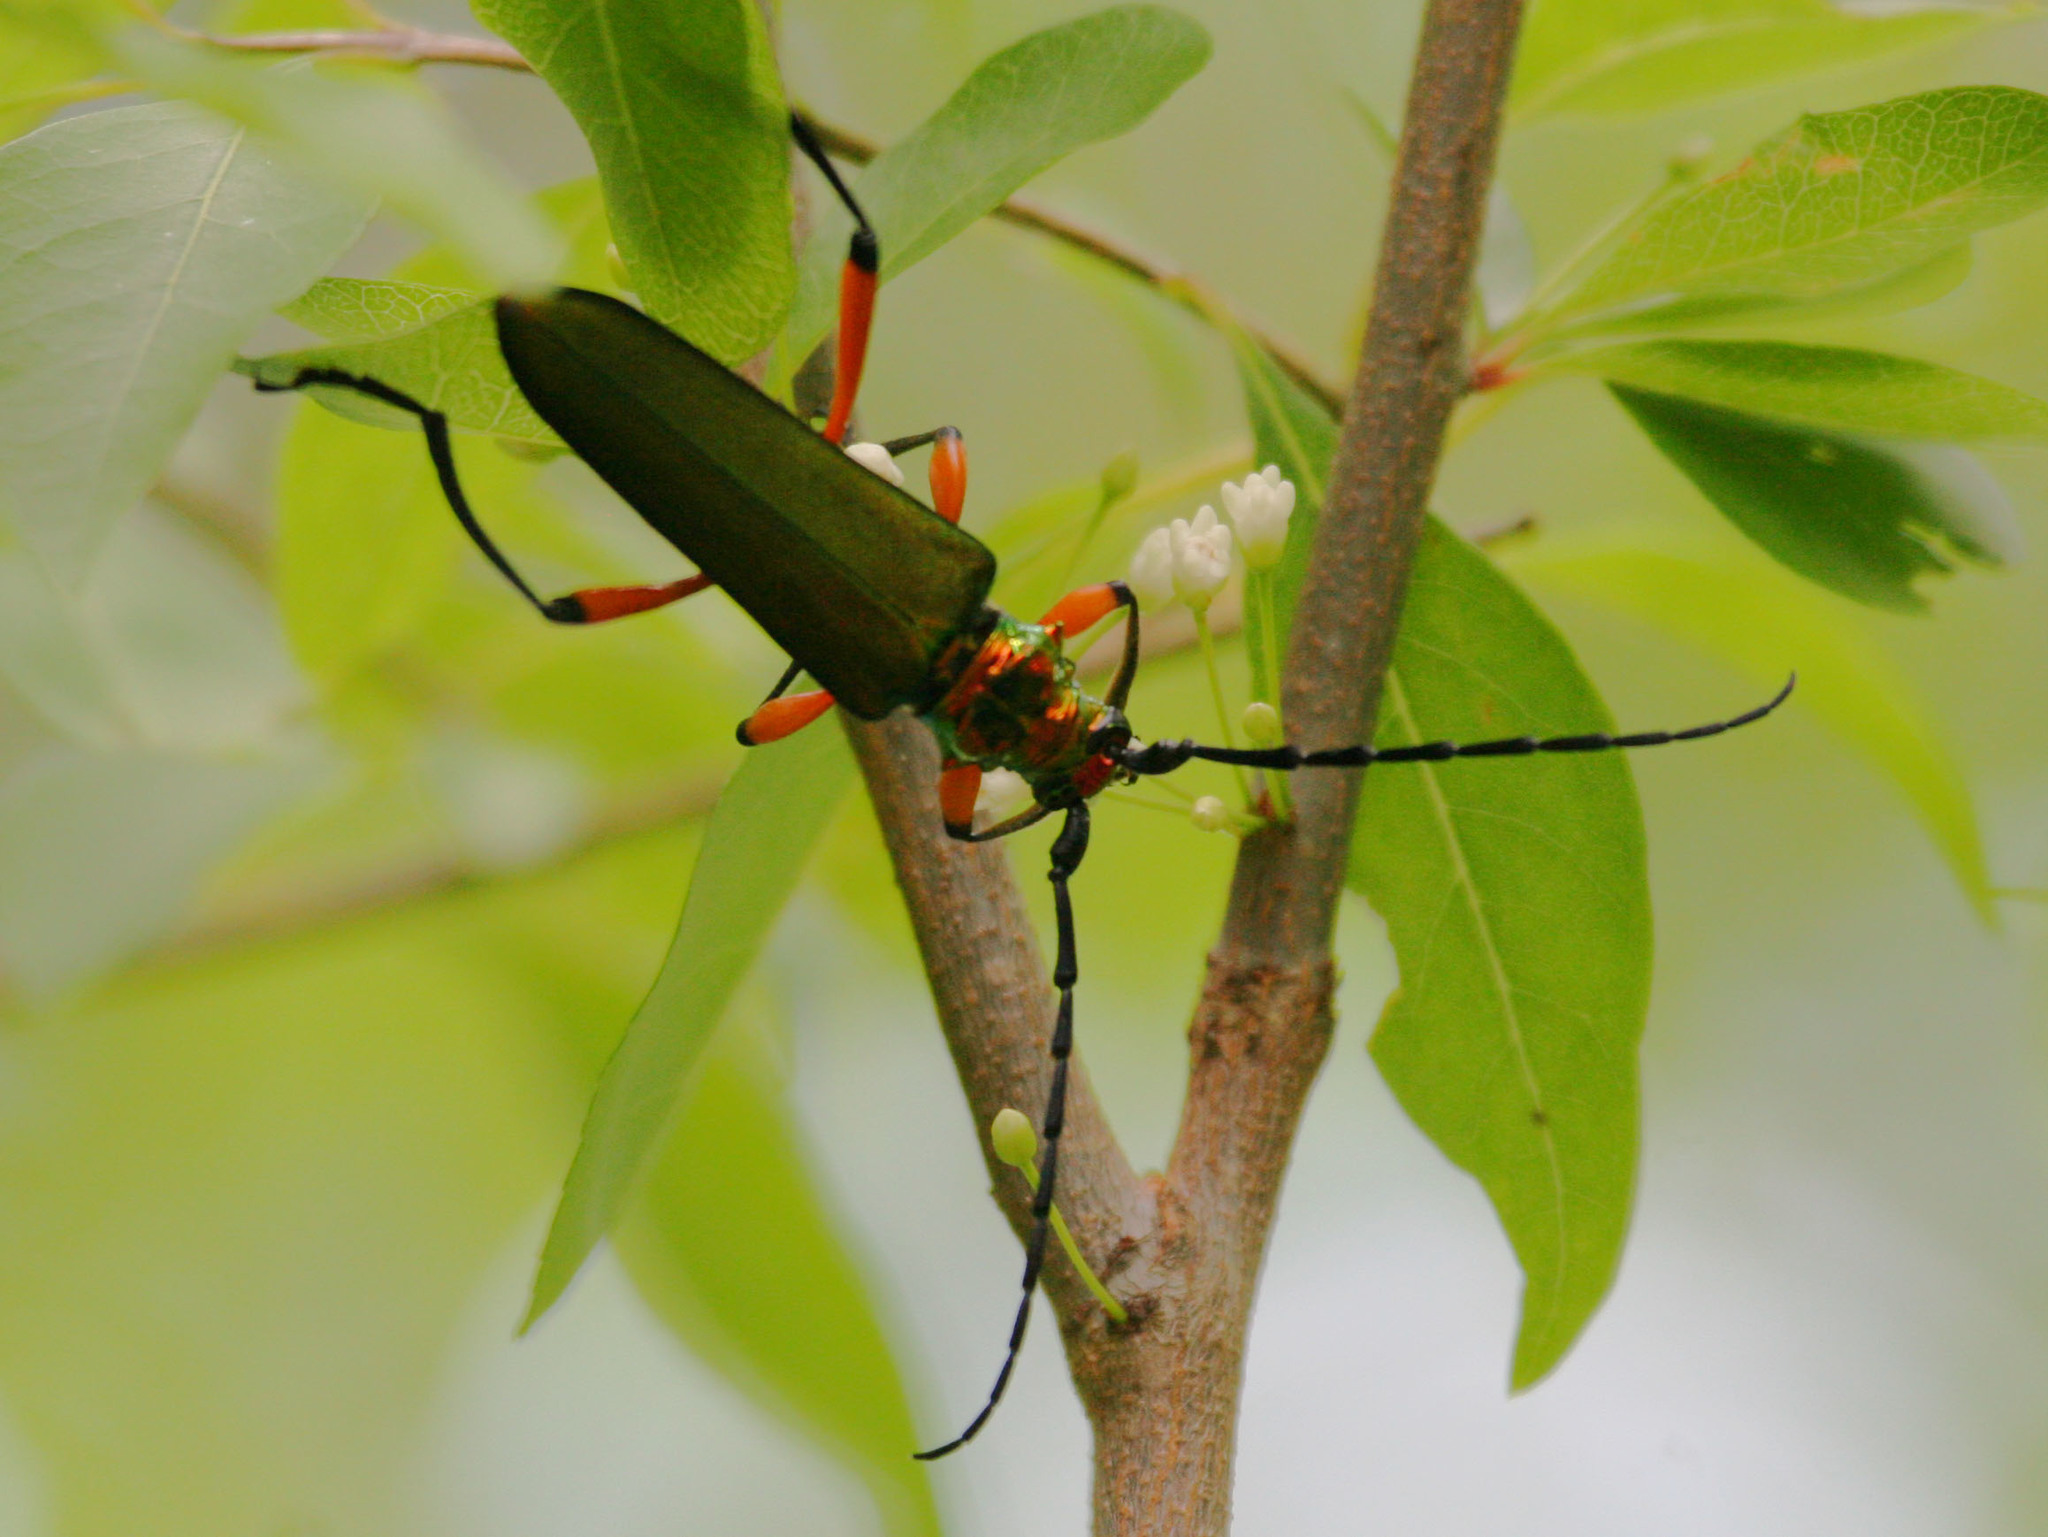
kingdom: Animalia
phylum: Arthropoda
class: Insecta
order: Coleoptera
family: Cerambycidae
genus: Plinthocoelium
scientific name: Plinthocoelium suaveolens
